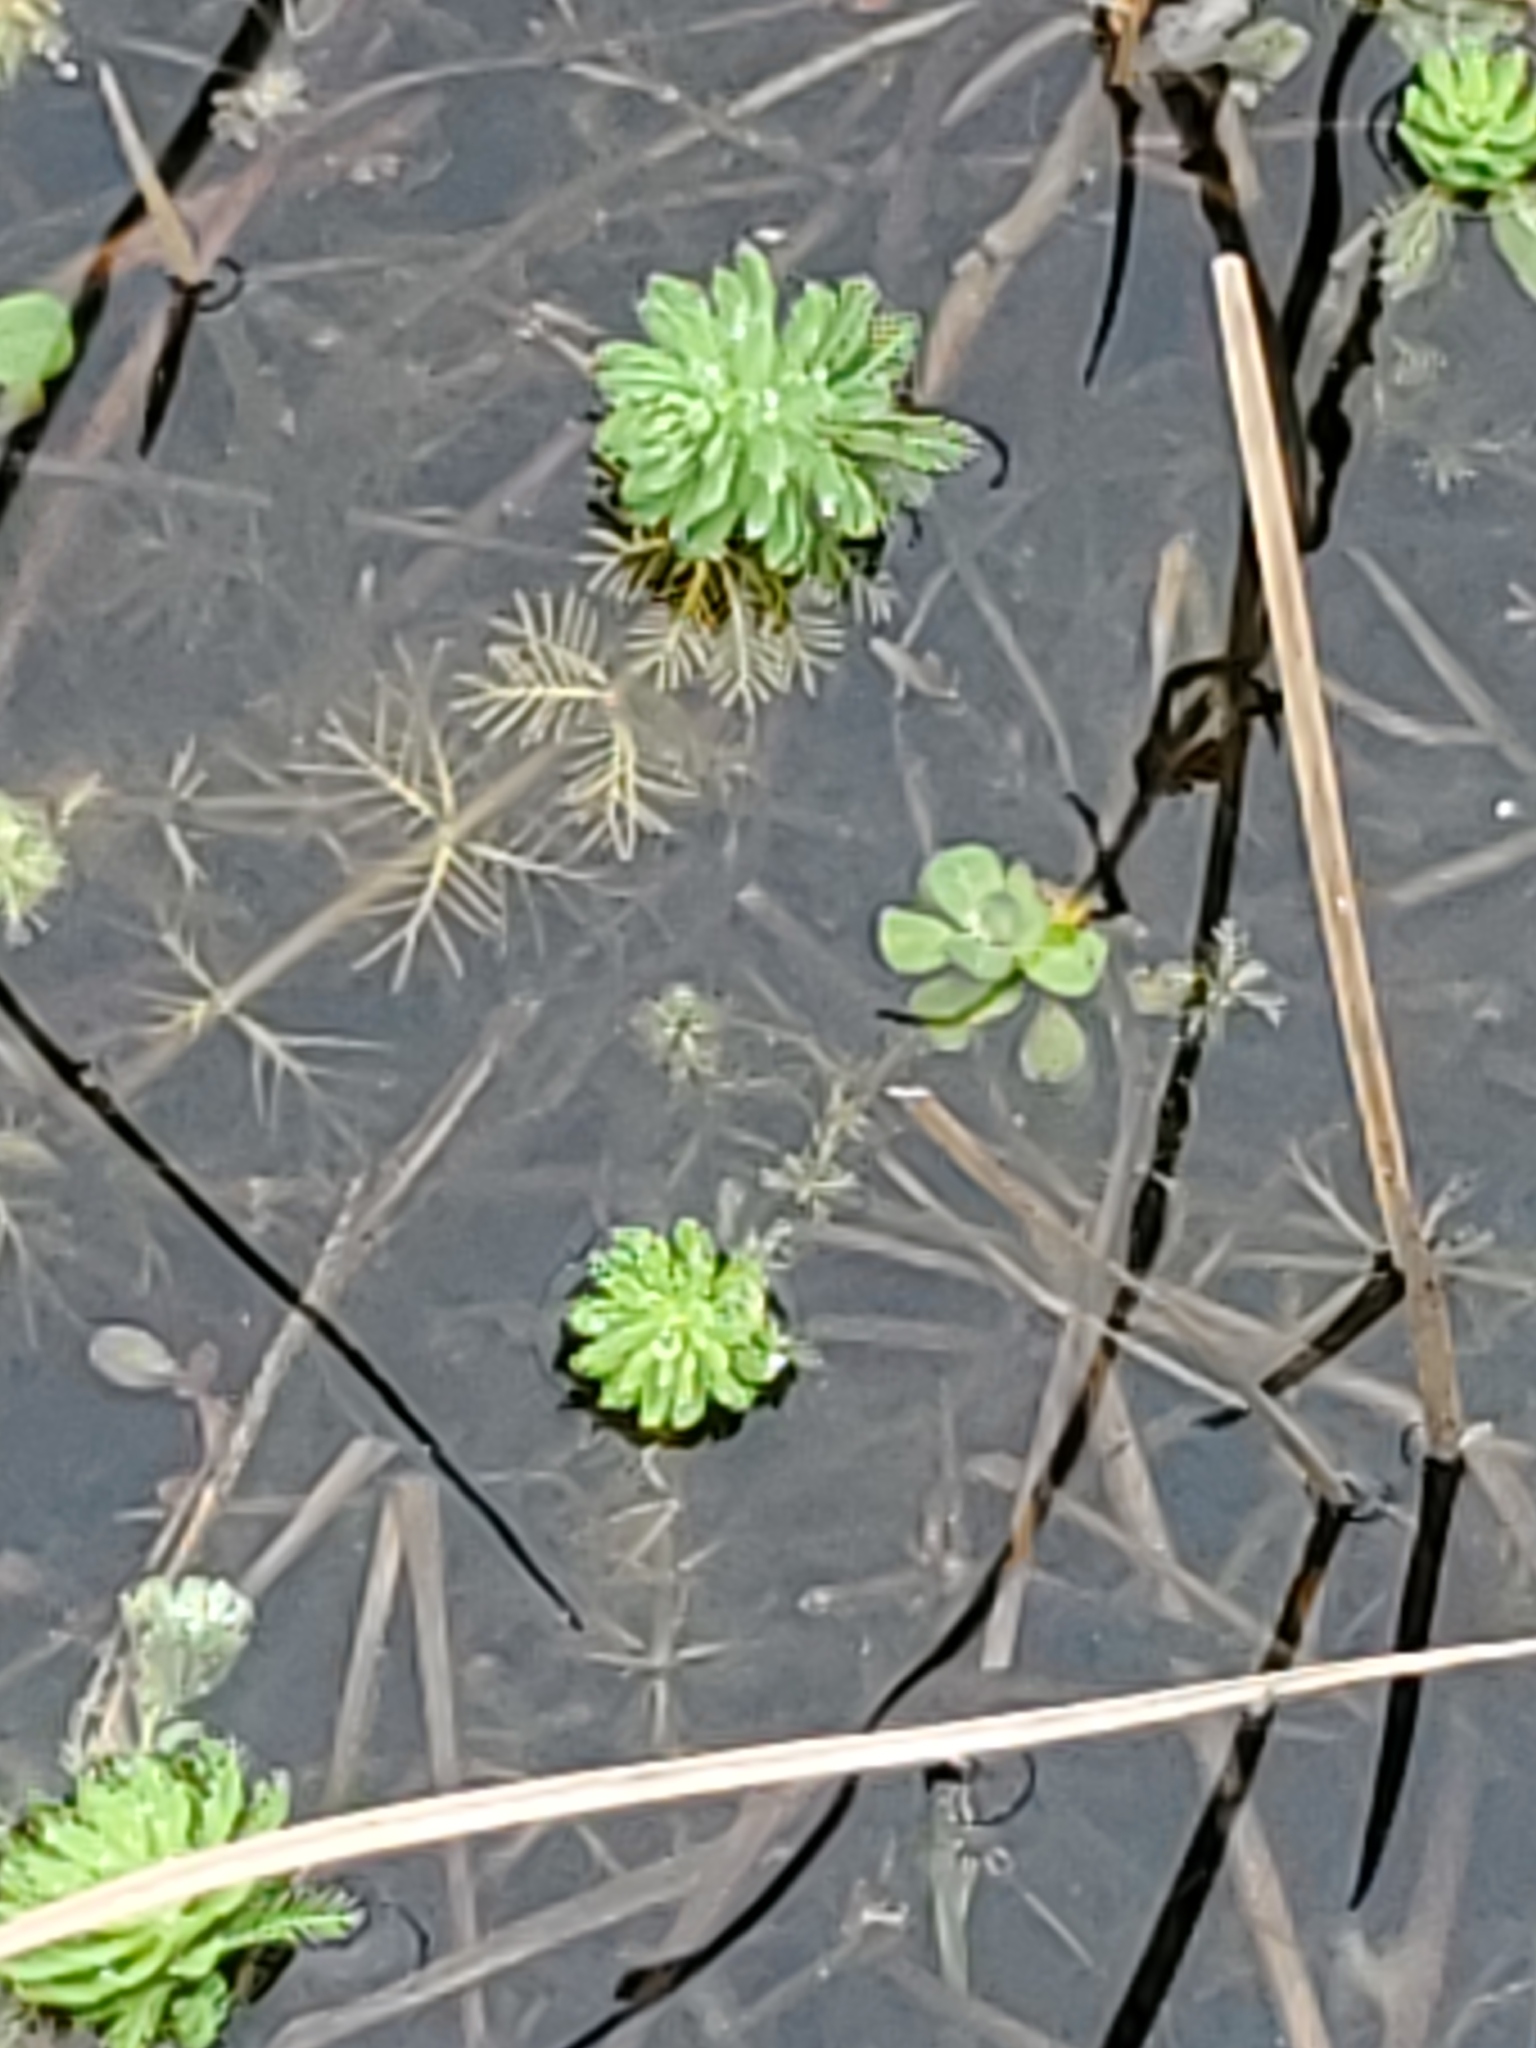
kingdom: Plantae
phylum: Tracheophyta
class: Magnoliopsida
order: Saxifragales
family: Haloragaceae
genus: Myriophyllum
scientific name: Myriophyllum aquaticum
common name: Parrot's feather
